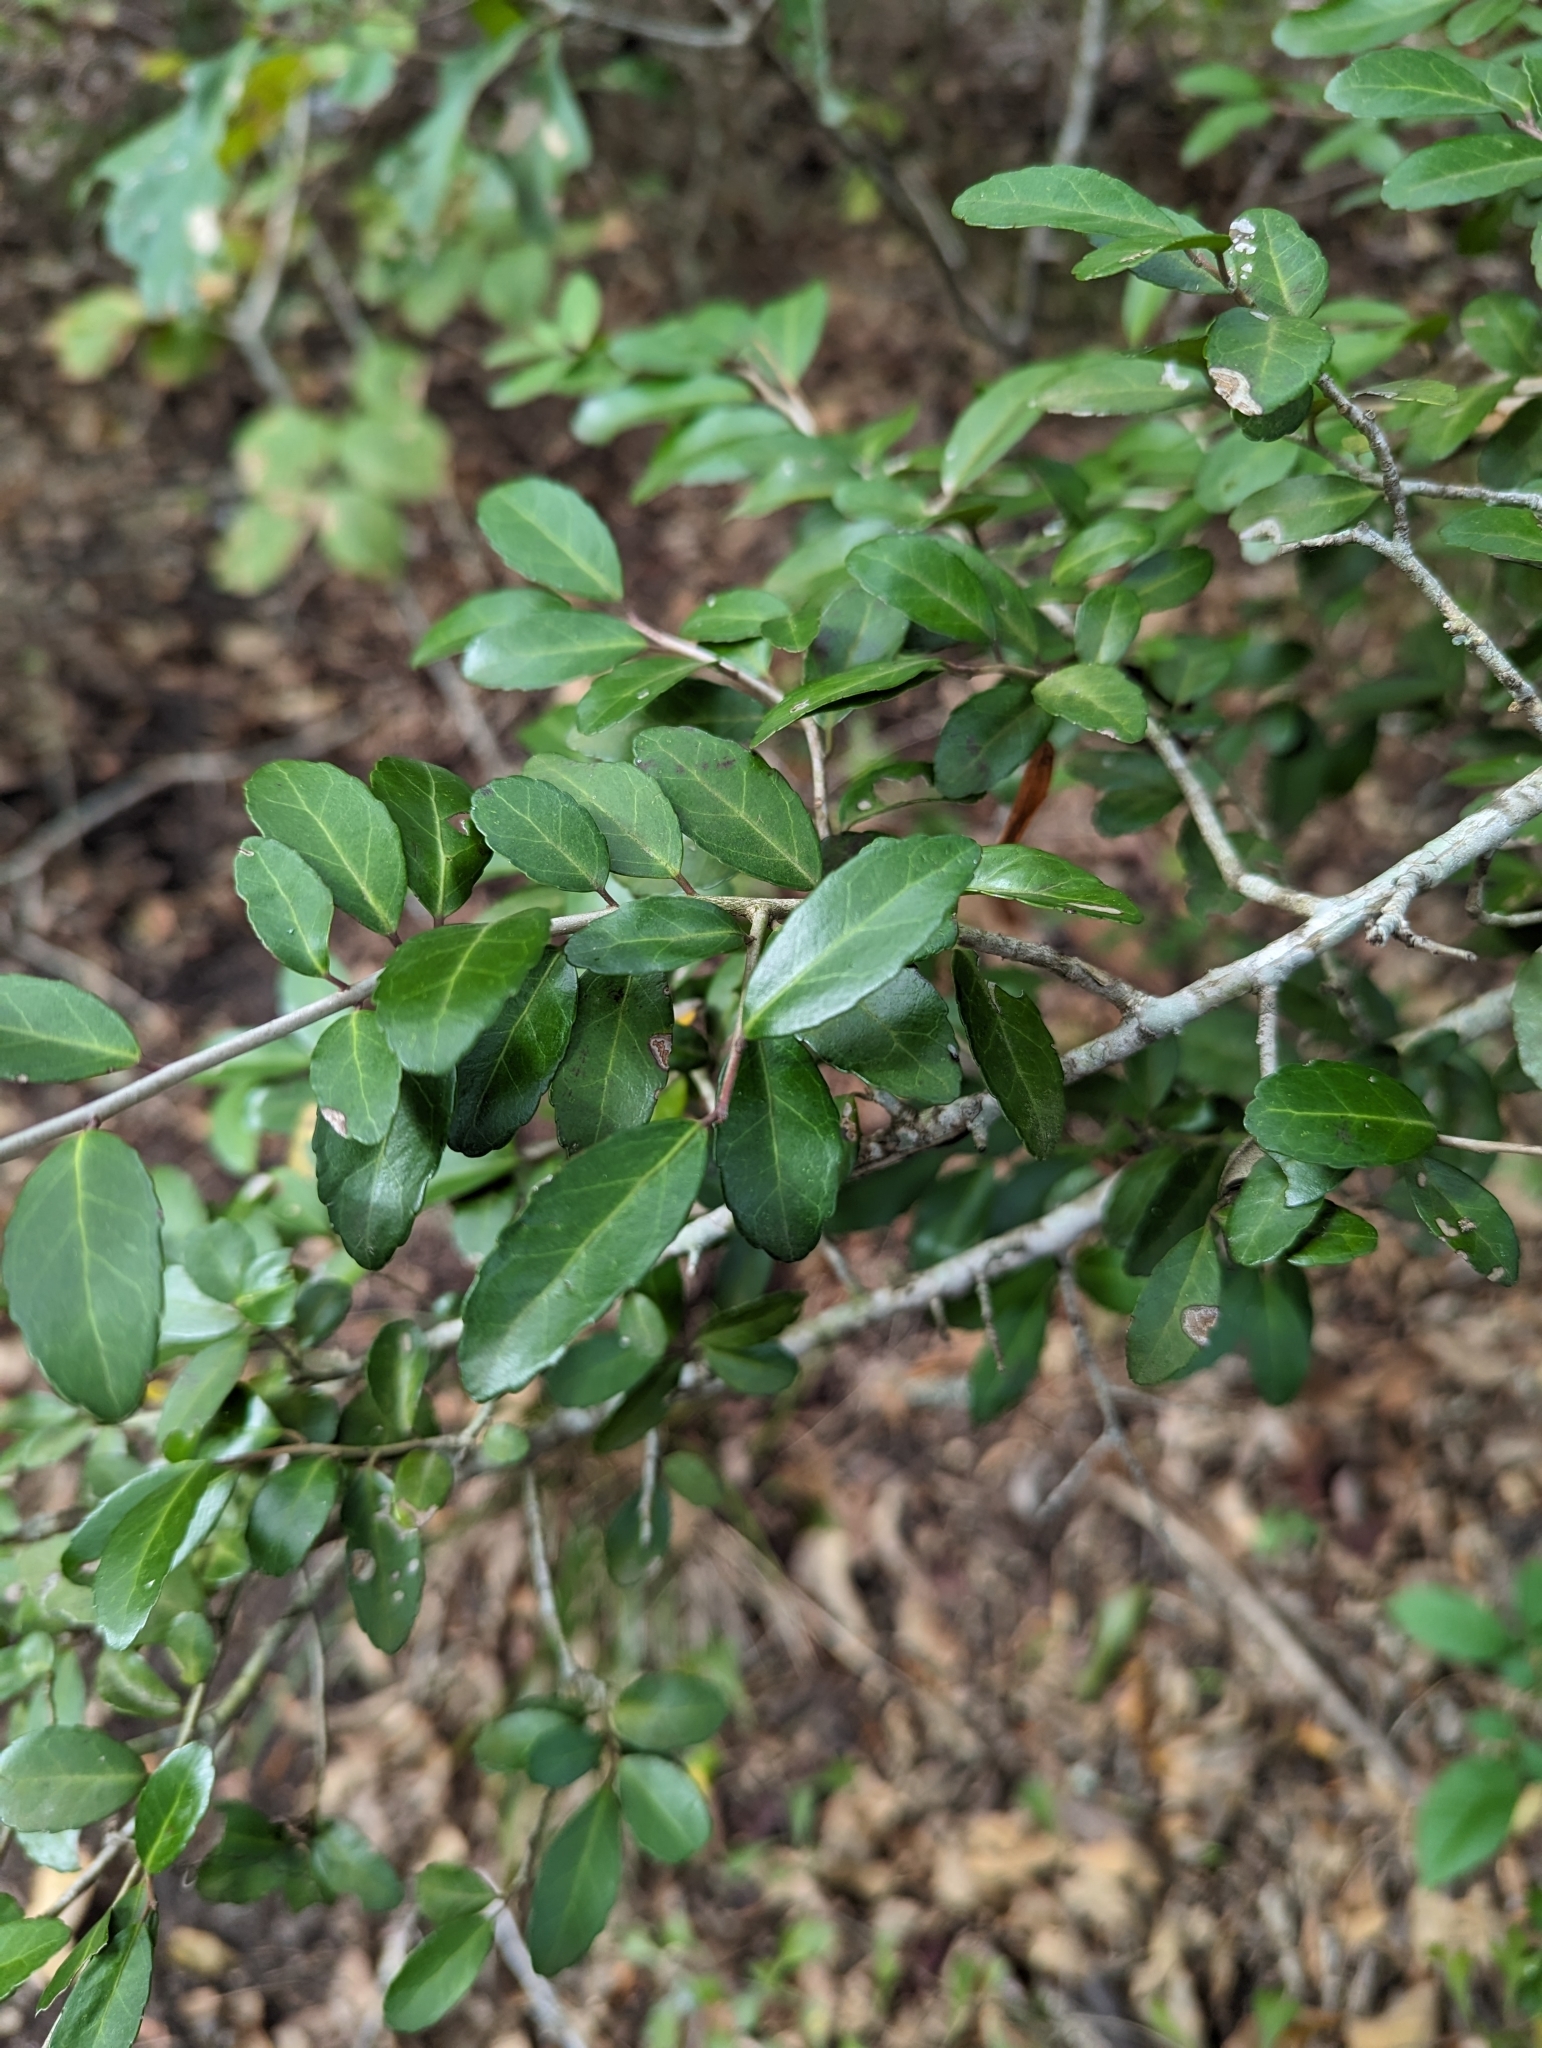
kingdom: Plantae
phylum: Tracheophyta
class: Magnoliopsida
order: Aquifoliales
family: Aquifoliaceae
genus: Ilex
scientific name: Ilex vomitoria
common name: Yaupon holly
